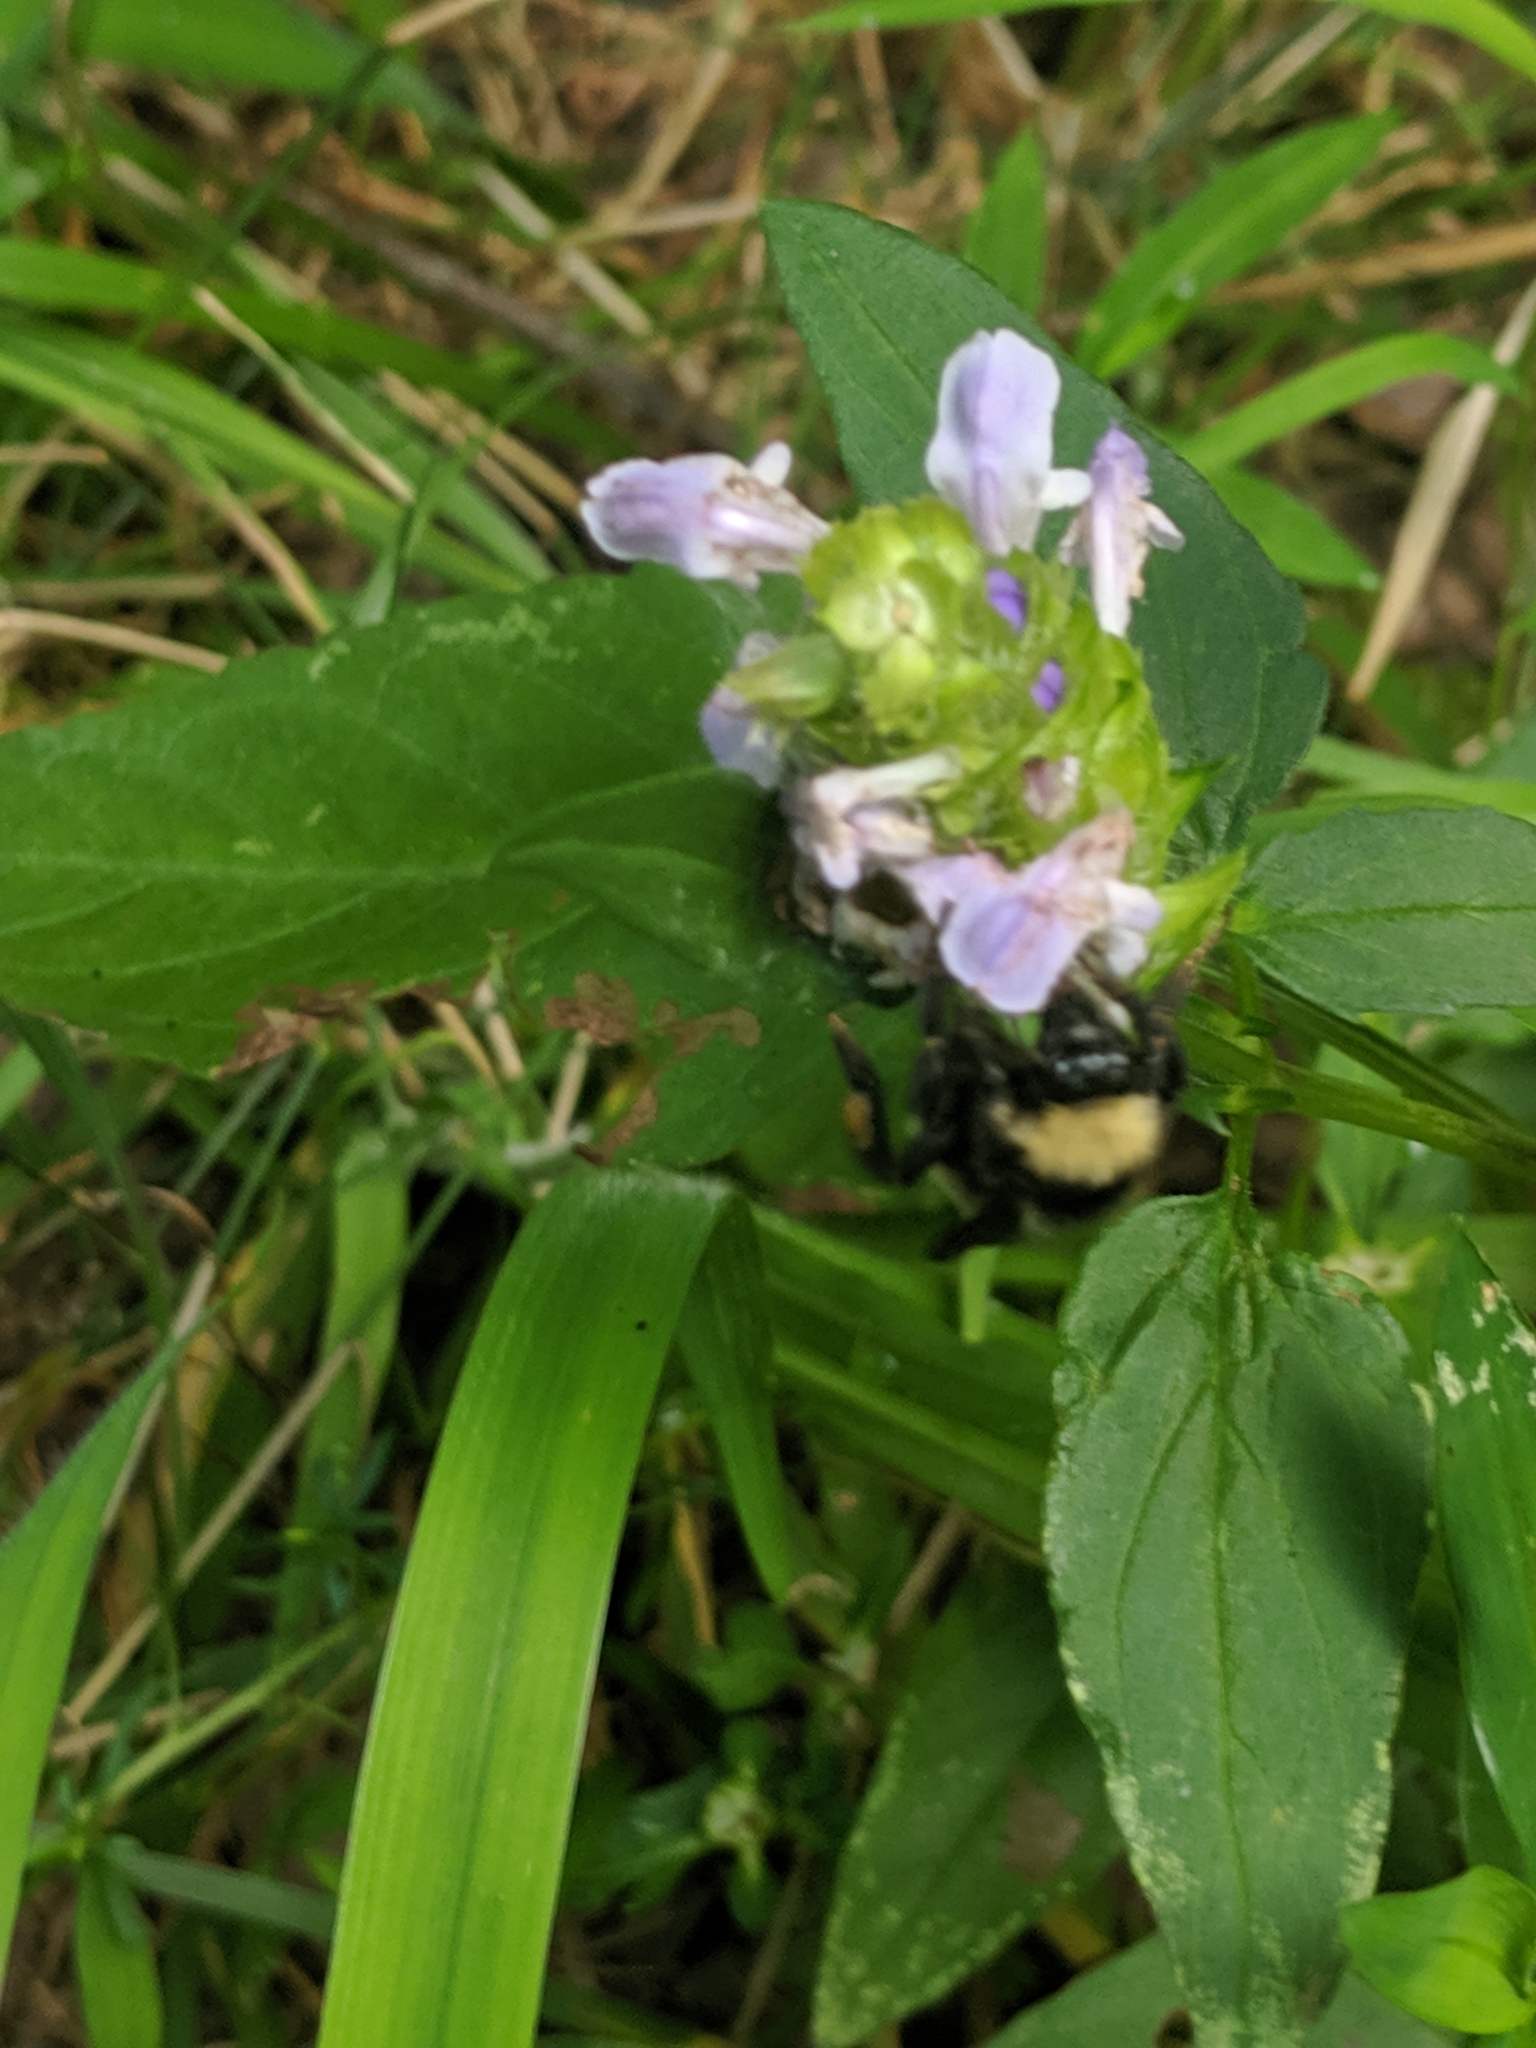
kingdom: Animalia
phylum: Arthropoda
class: Insecta
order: Hymenoptera
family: Apidae
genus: Bombus
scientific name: Bombus pensylvanicus
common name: Bumble bee
